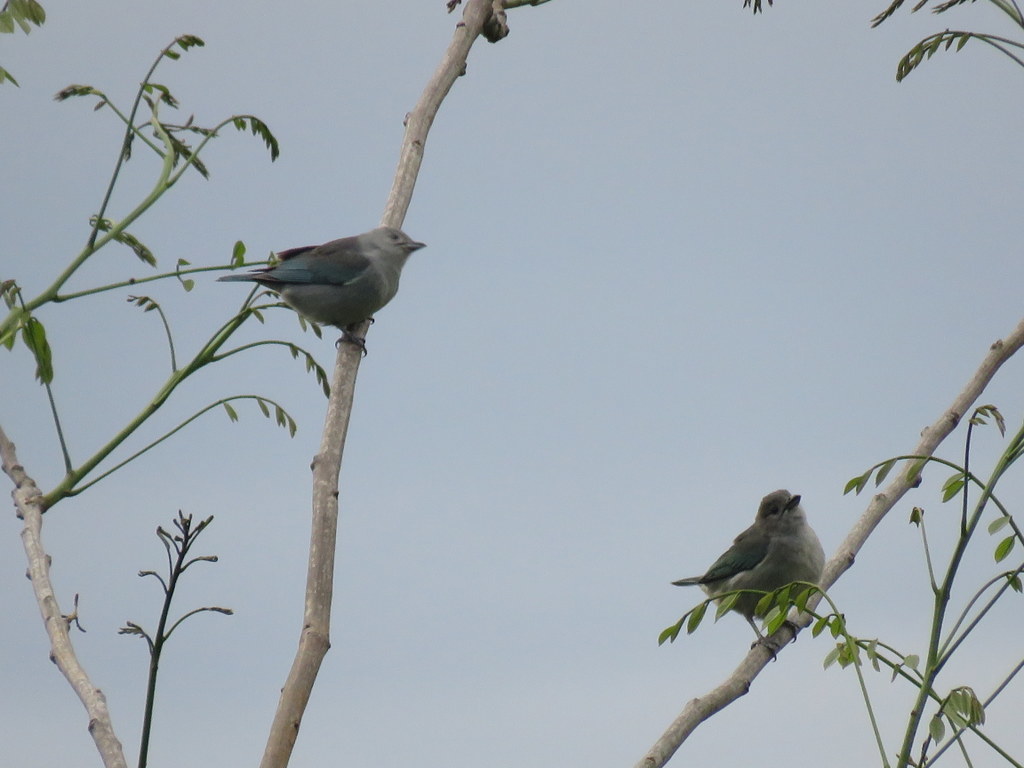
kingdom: Animalia
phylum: Chordata
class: Aves
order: Passeriformes
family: Thraupidae
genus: Thraupis
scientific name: Thraupis sayaca
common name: Sayaca tanager
